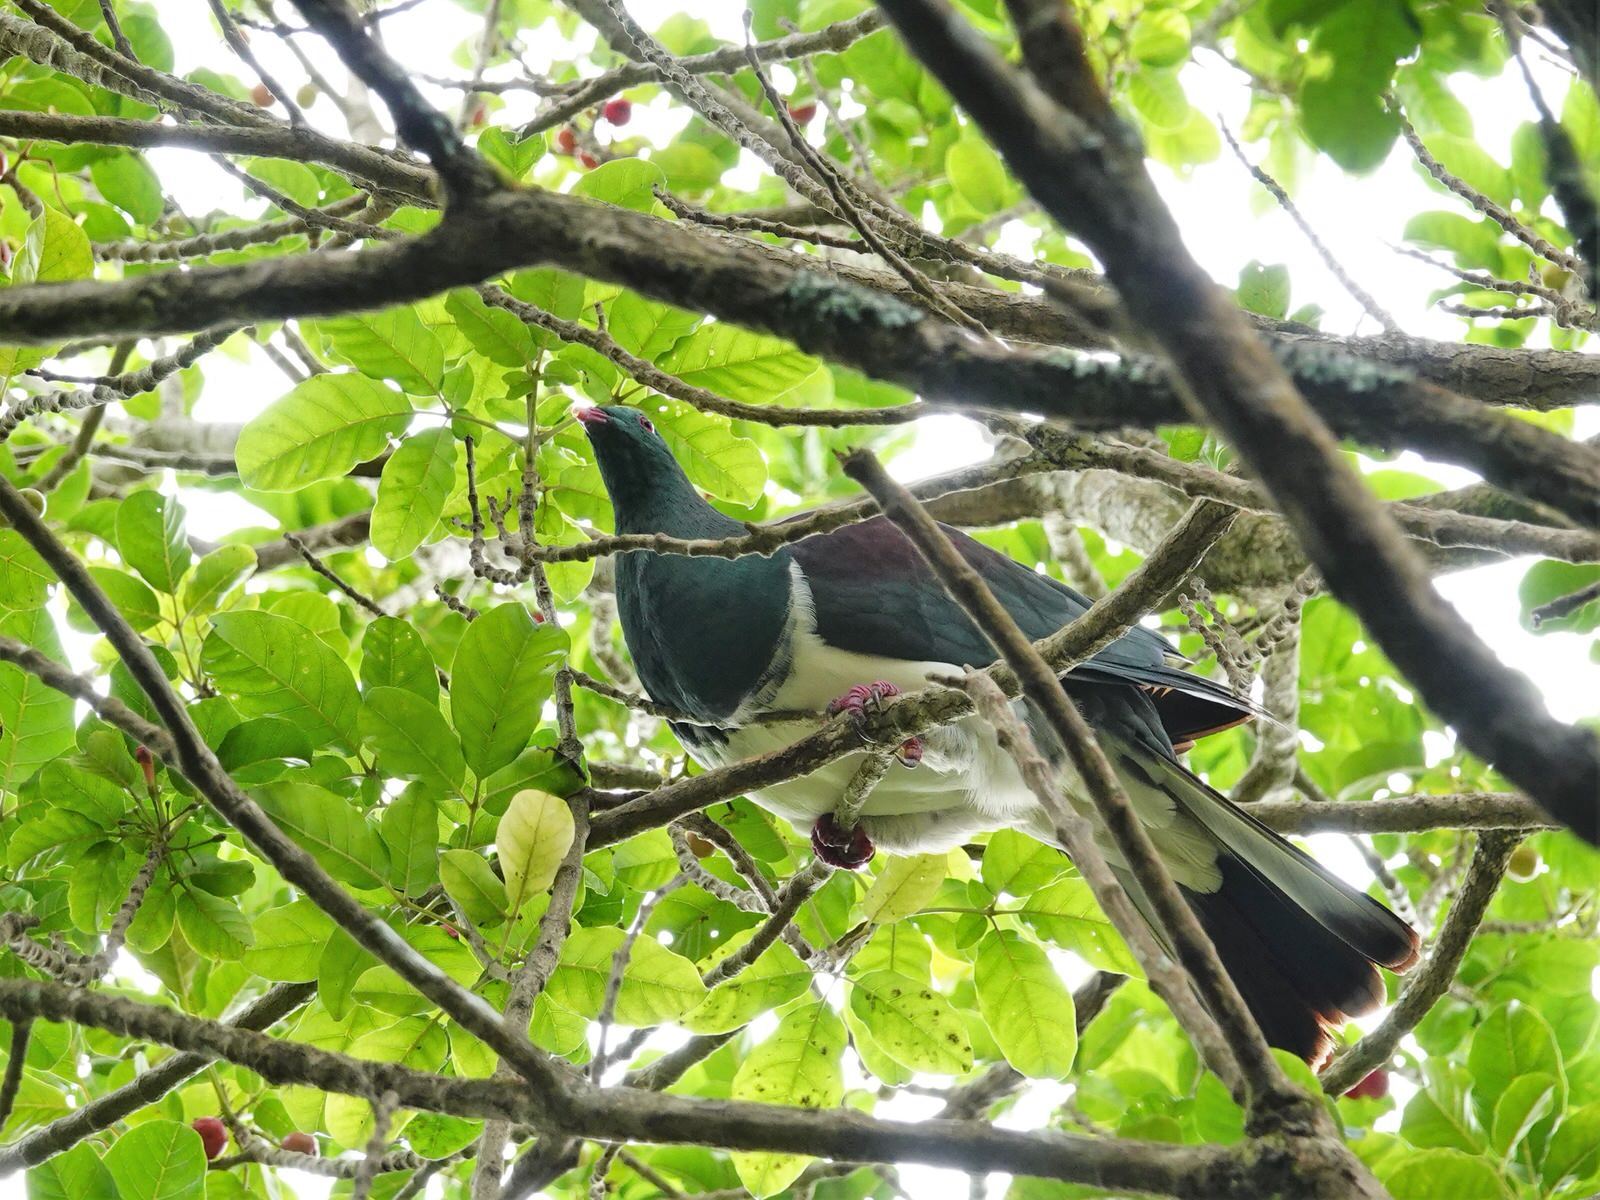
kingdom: Animalia
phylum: Chordata
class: Aves
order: Columbiformes
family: Columbidae
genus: Hemiphaga
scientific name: Hemiphaga novaeseelandiae
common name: New zealand pigeon
